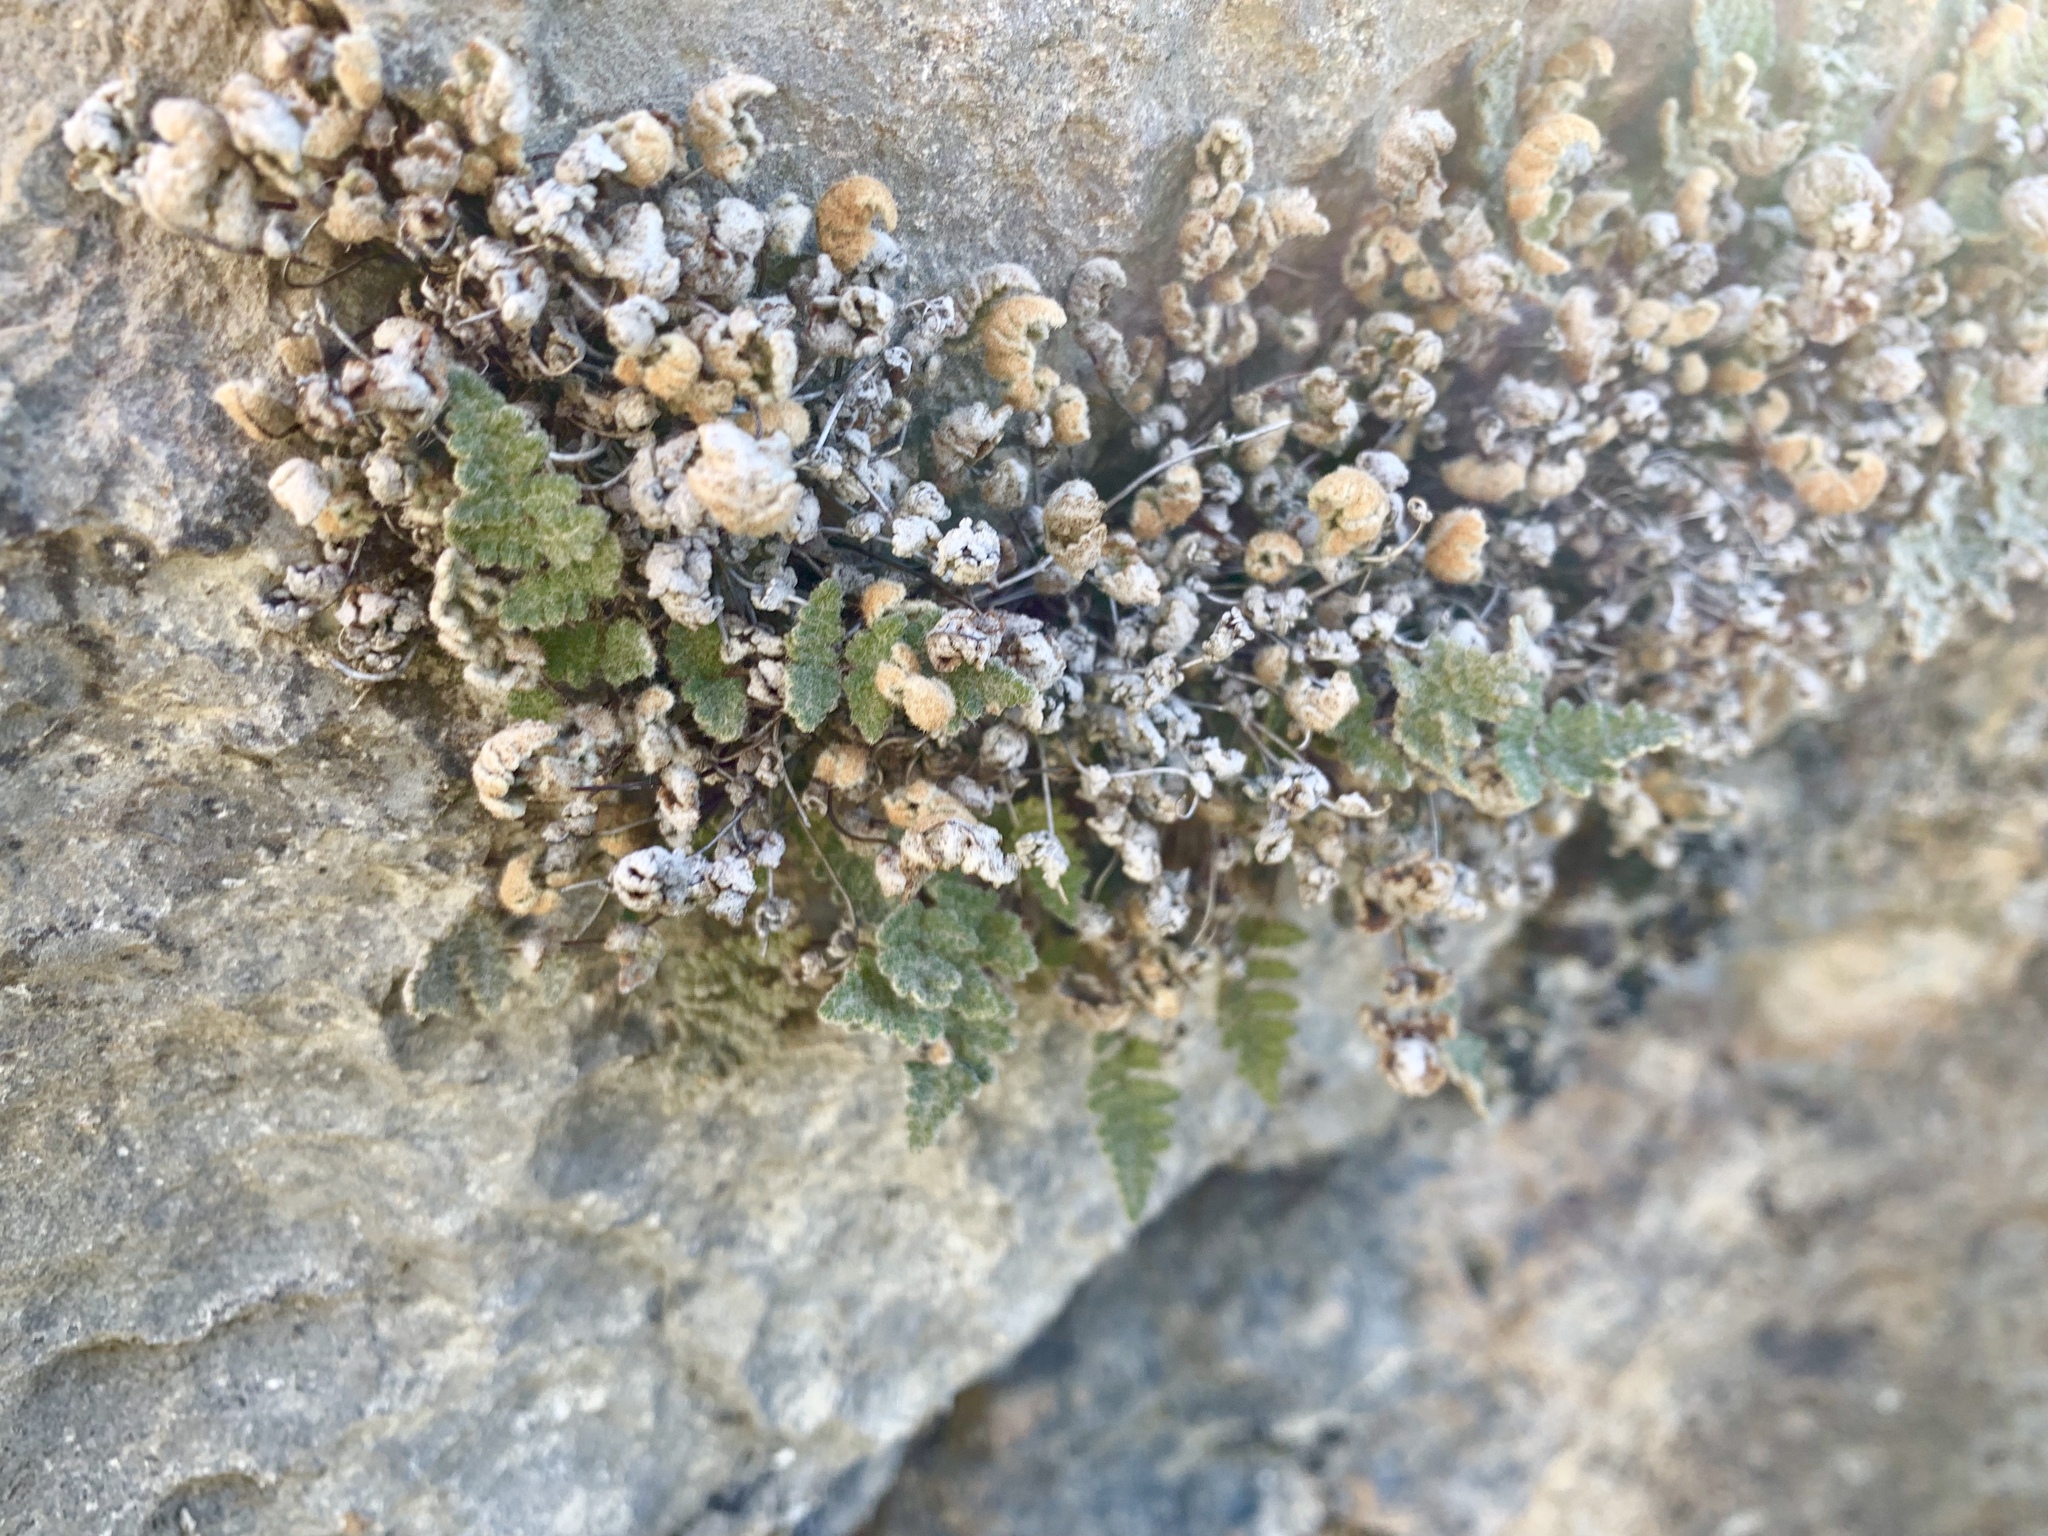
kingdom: Plantae
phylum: Tracheophyta
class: Polypodiopsida
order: Polypodiales
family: Pteridaceae
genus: Myriopteris
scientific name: Myriopteris gracilis
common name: Fee's lip fern
